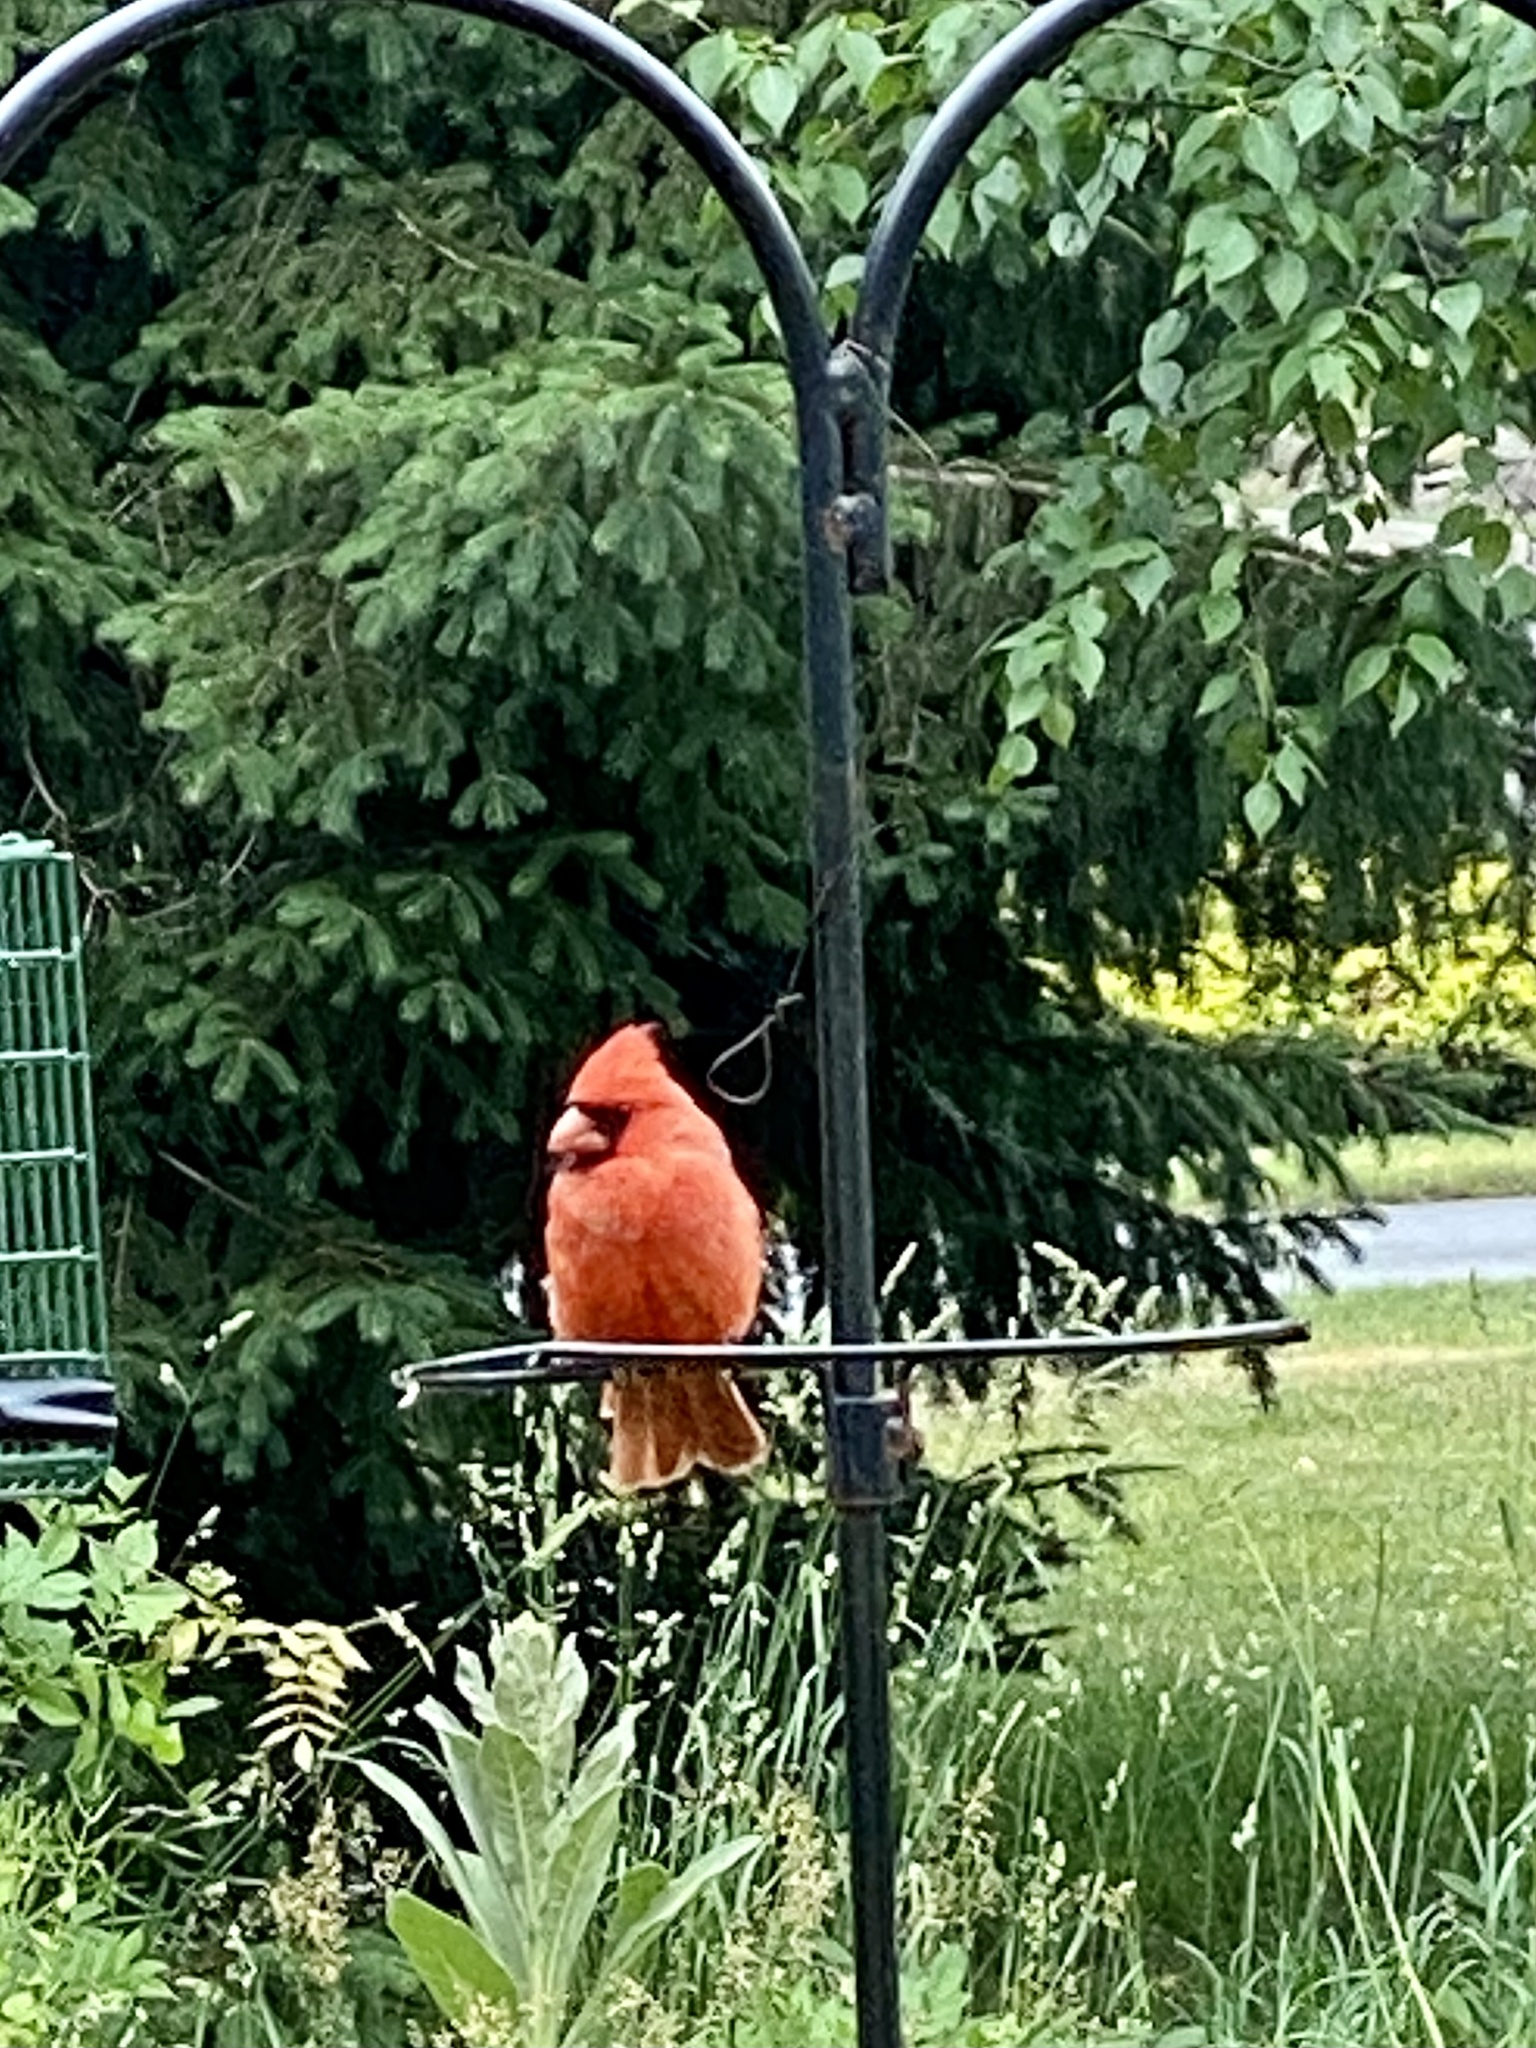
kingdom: Animalia
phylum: Chordata
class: Aves
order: Passeriformes
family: Cardinalidae
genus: Cardinalis
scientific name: Cardinalis cardinalis
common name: Northern cardinal
